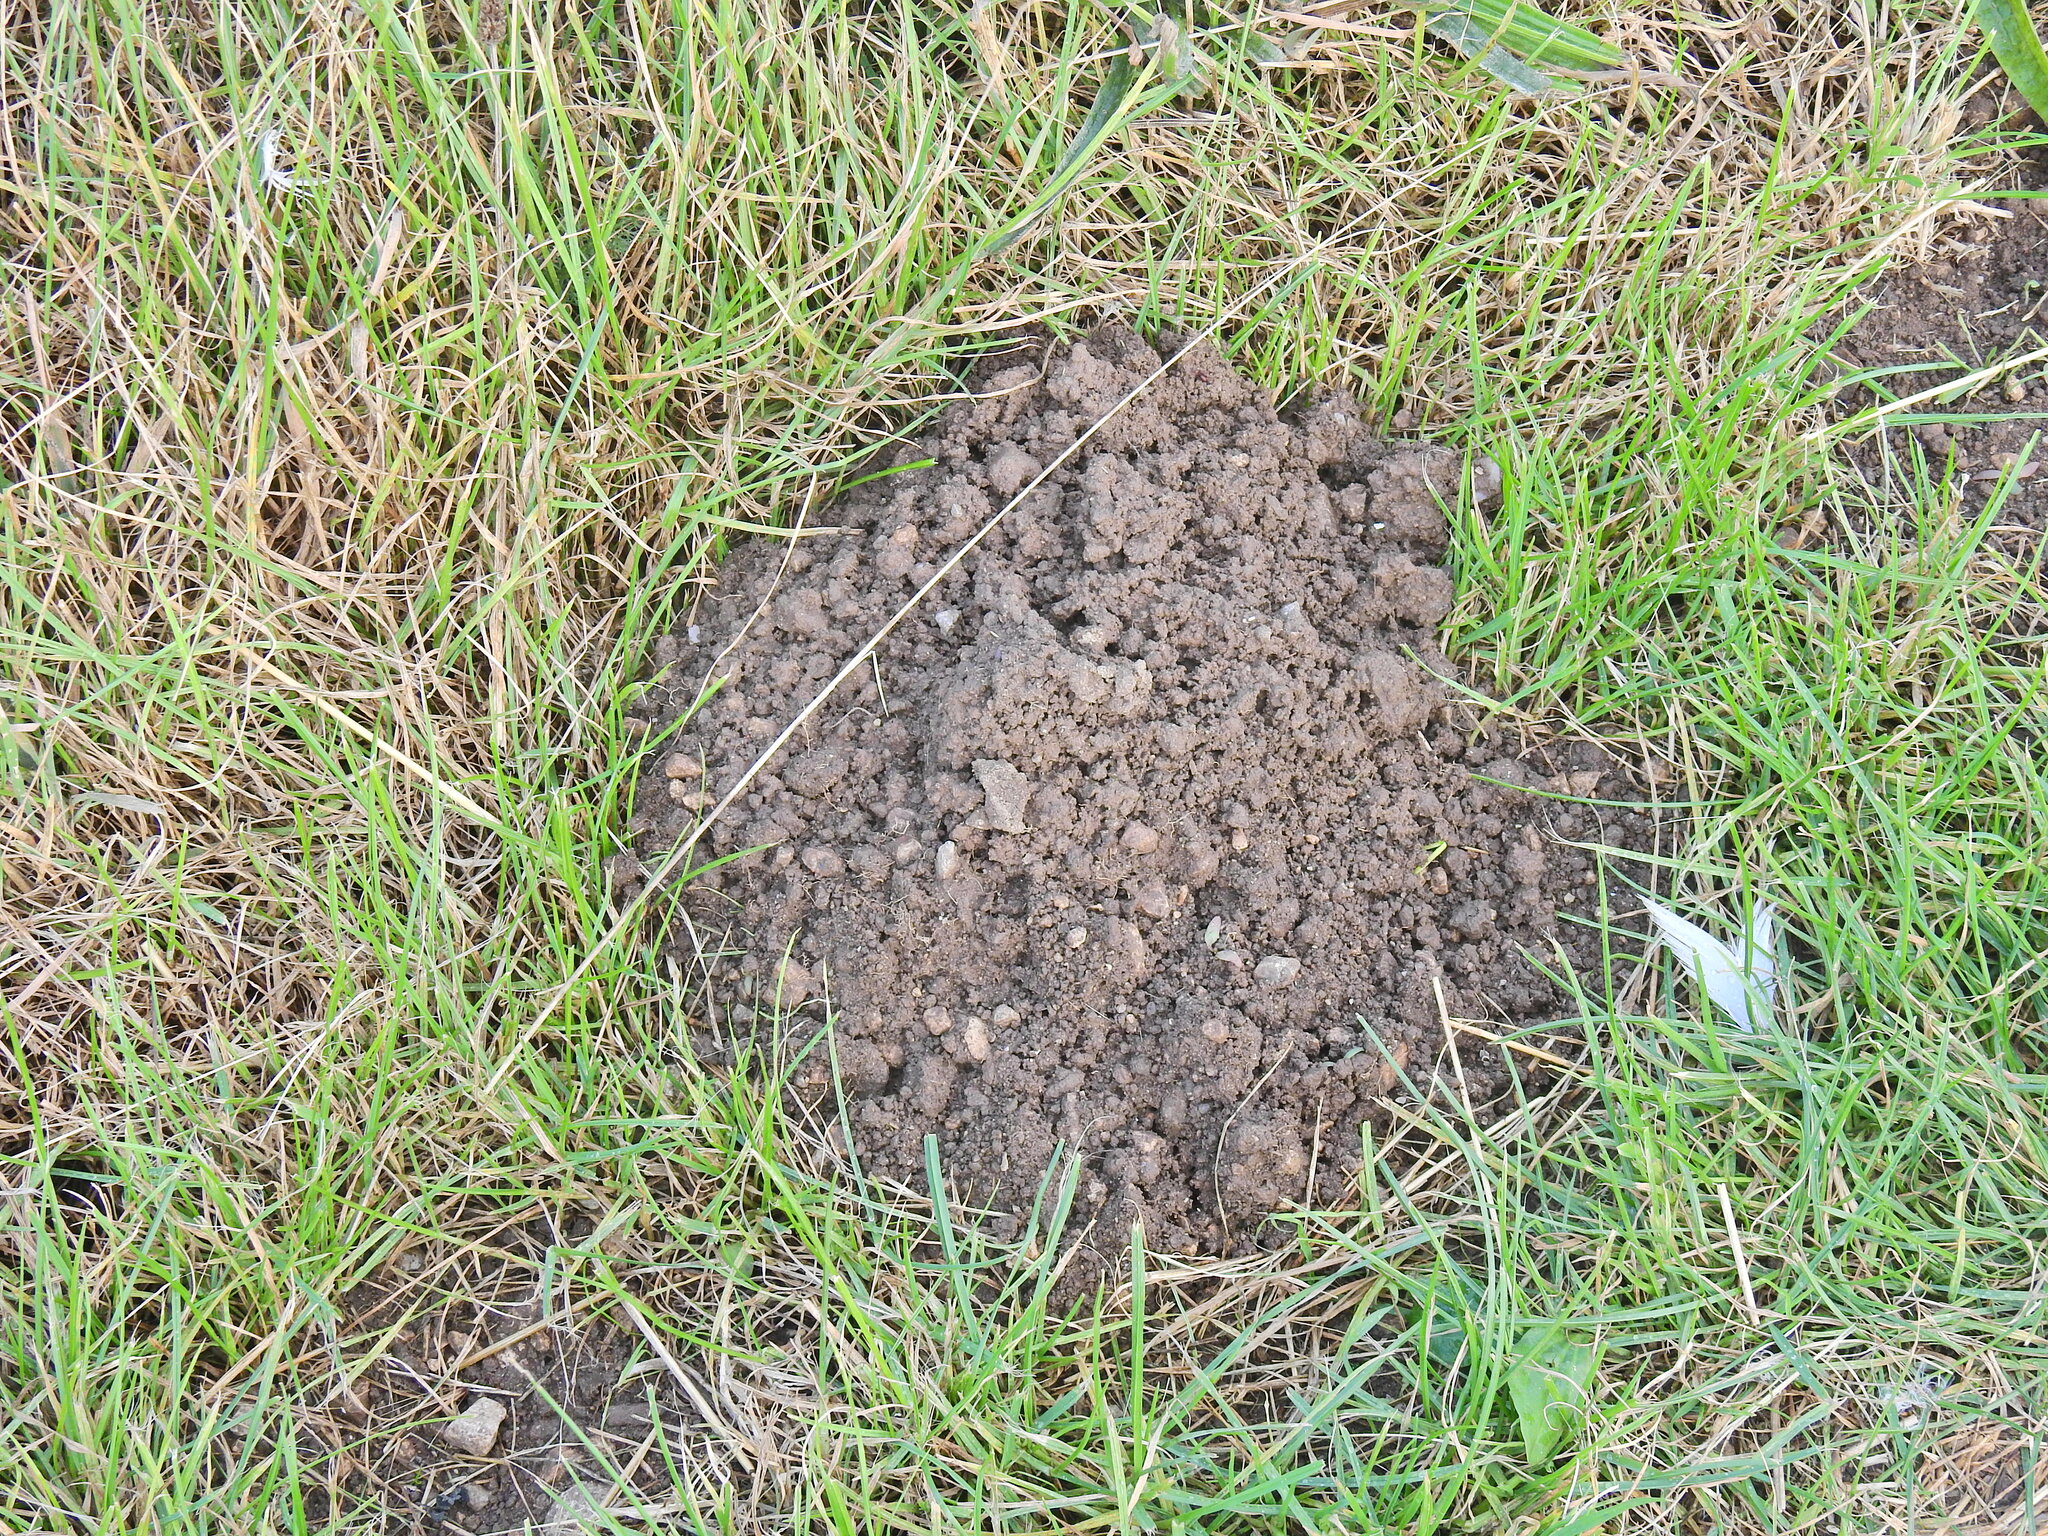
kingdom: Animalia
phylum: Chordata
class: Mammalia
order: Soricomorpha
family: Talpidae
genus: Talpa
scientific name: Talpa europaea
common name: European mole
